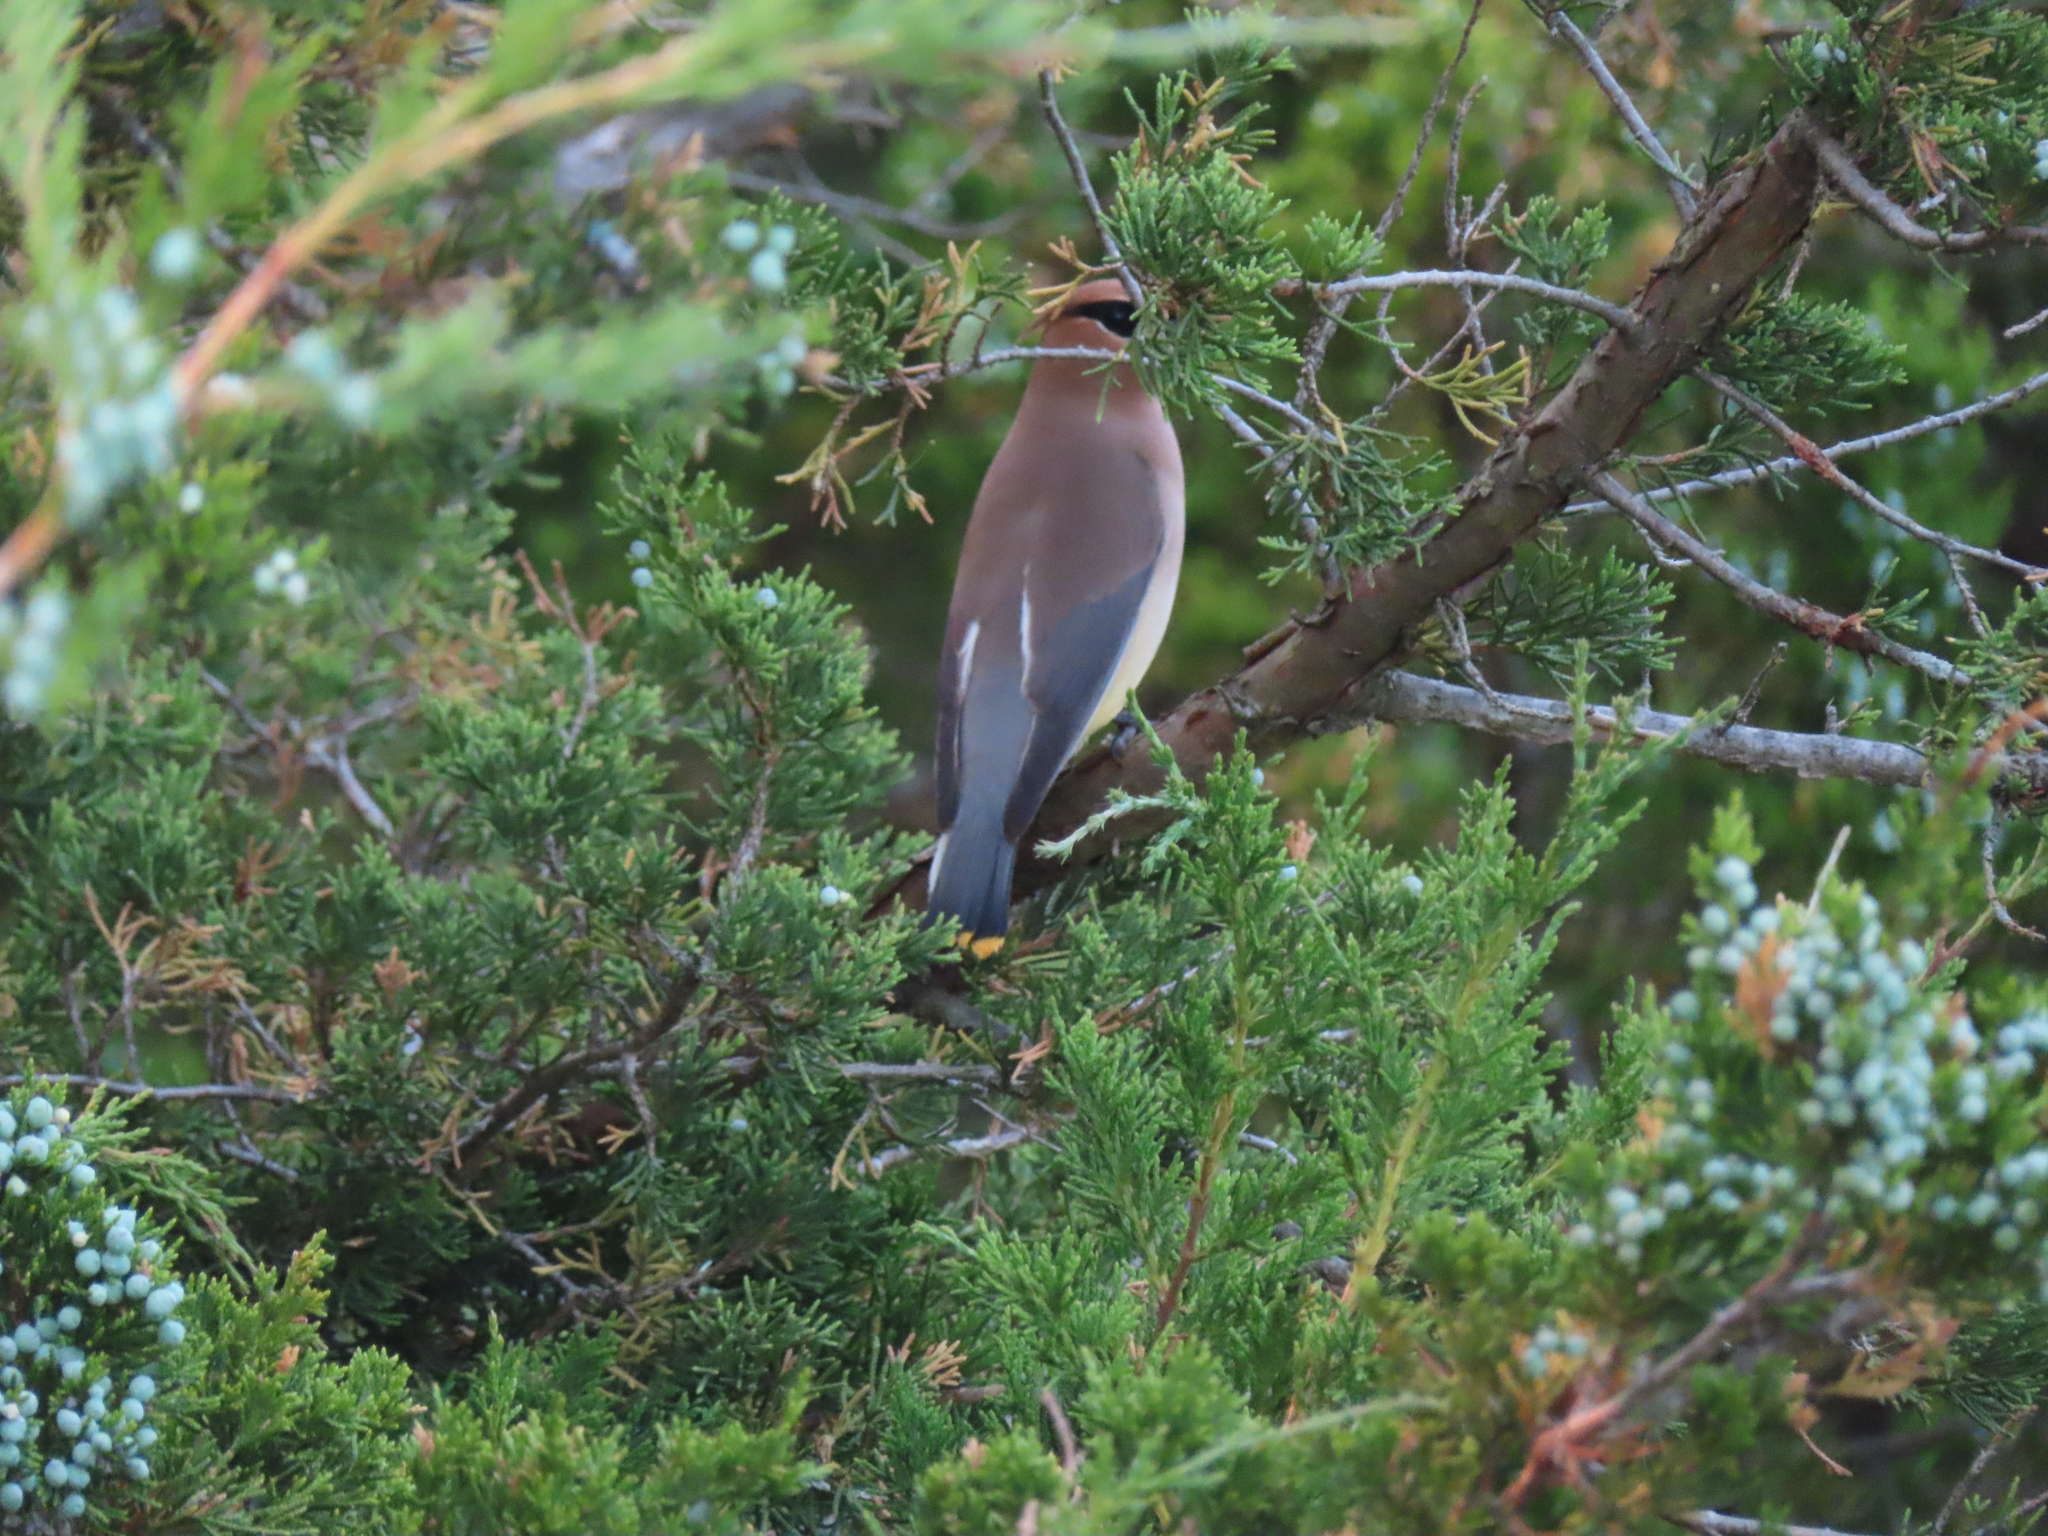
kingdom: Animalia
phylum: Chordata
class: Aves
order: Passeriformes
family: Bombycillidae
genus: Bombycilla
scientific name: Bombycilla cedrorum
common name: Cedar waxwing
